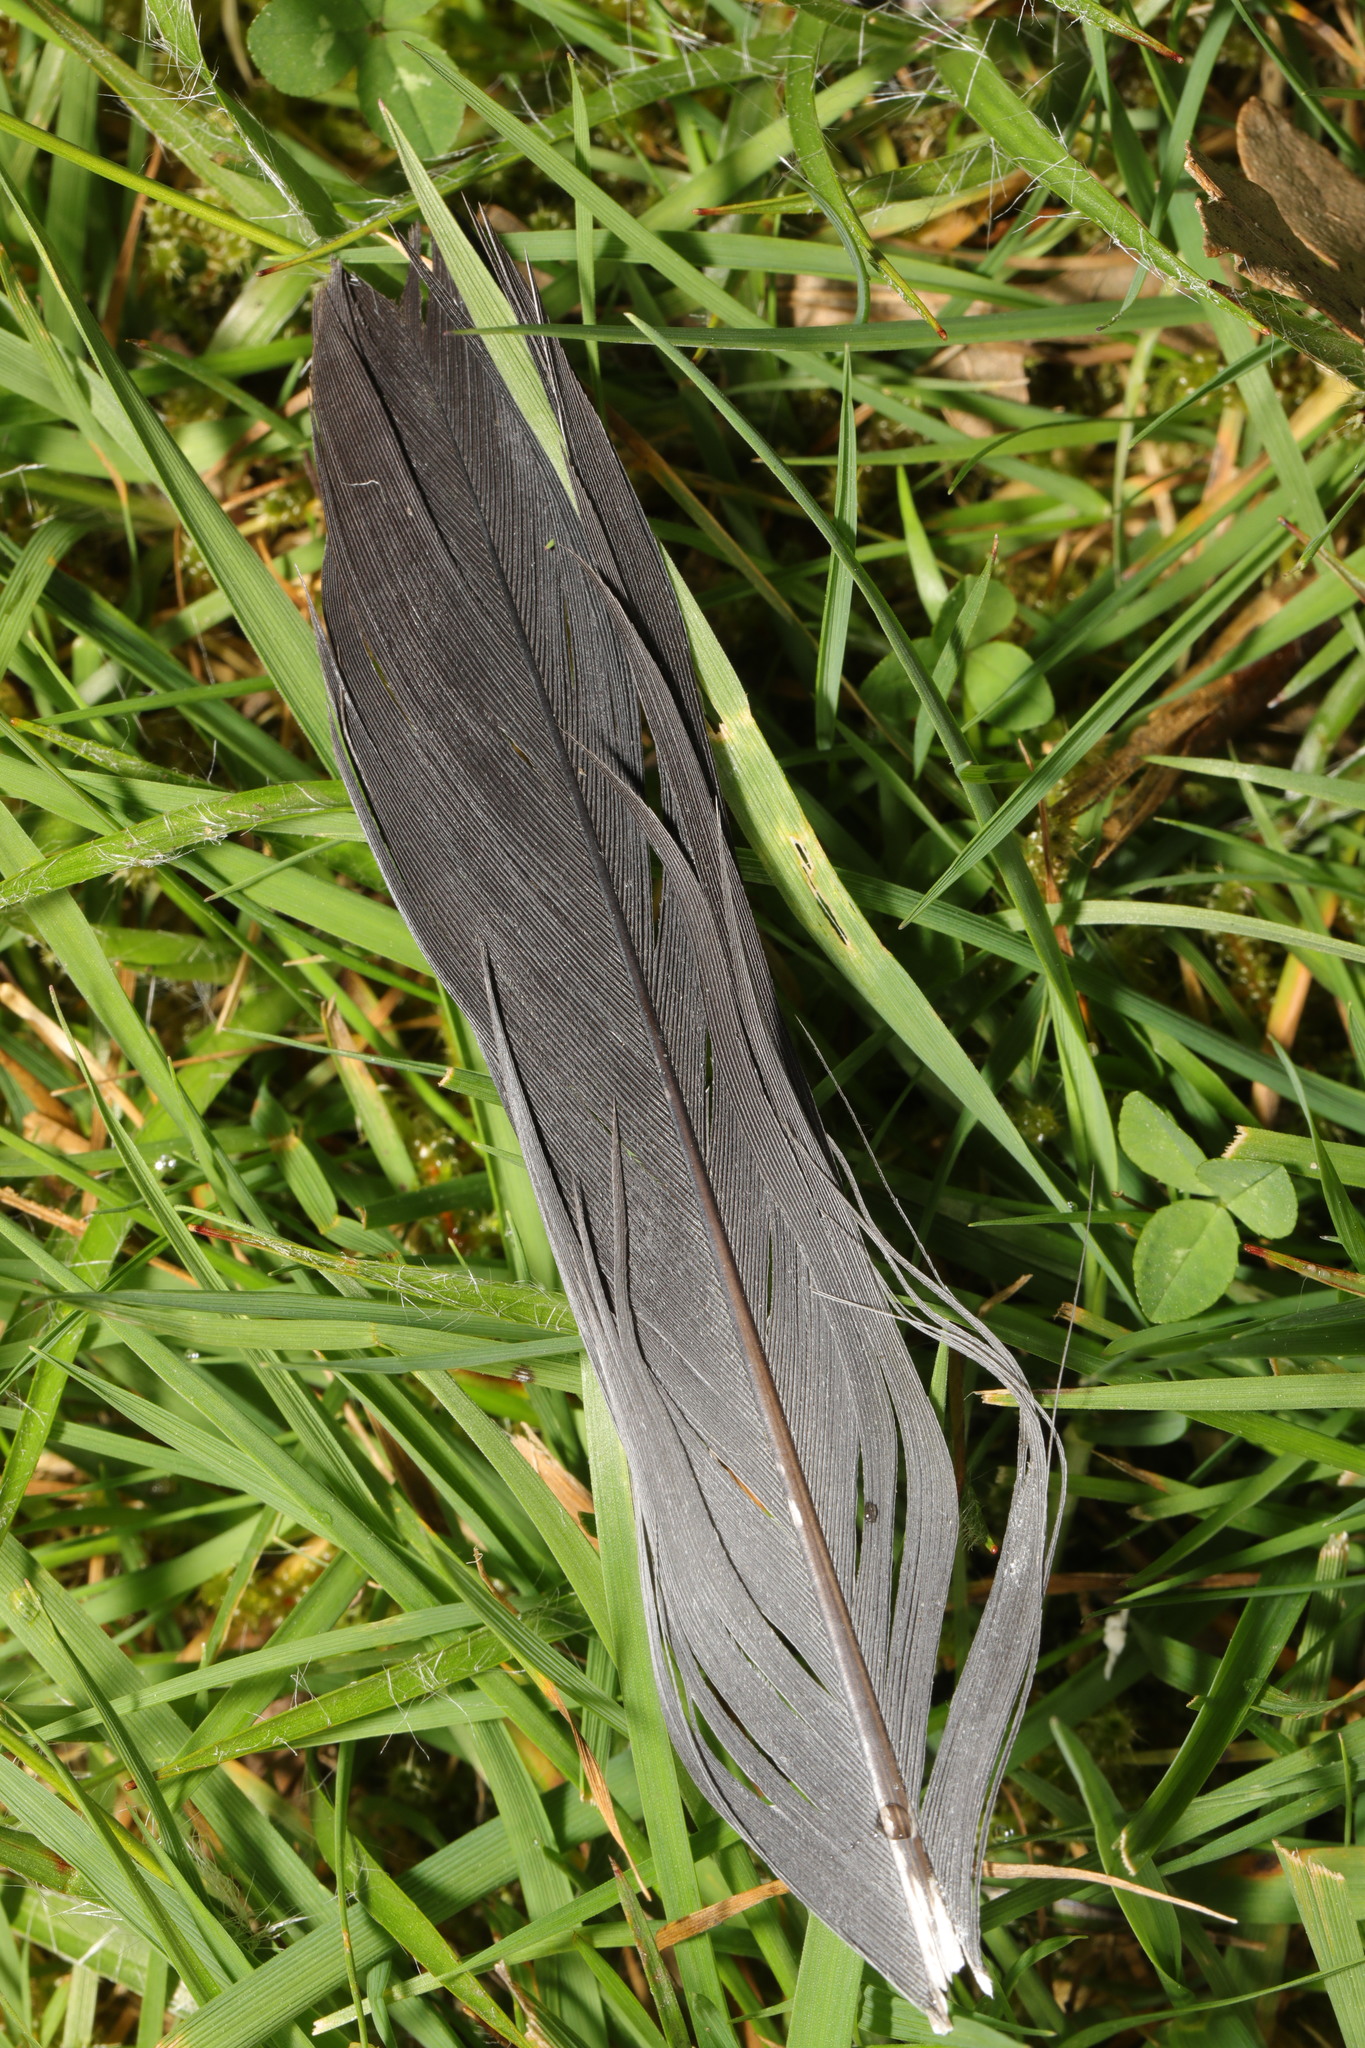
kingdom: Animalia
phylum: Chordata
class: Aves
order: Columbiformes
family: Columbidae
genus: Columba
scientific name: Columba palumbus
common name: Common wood pigeon
